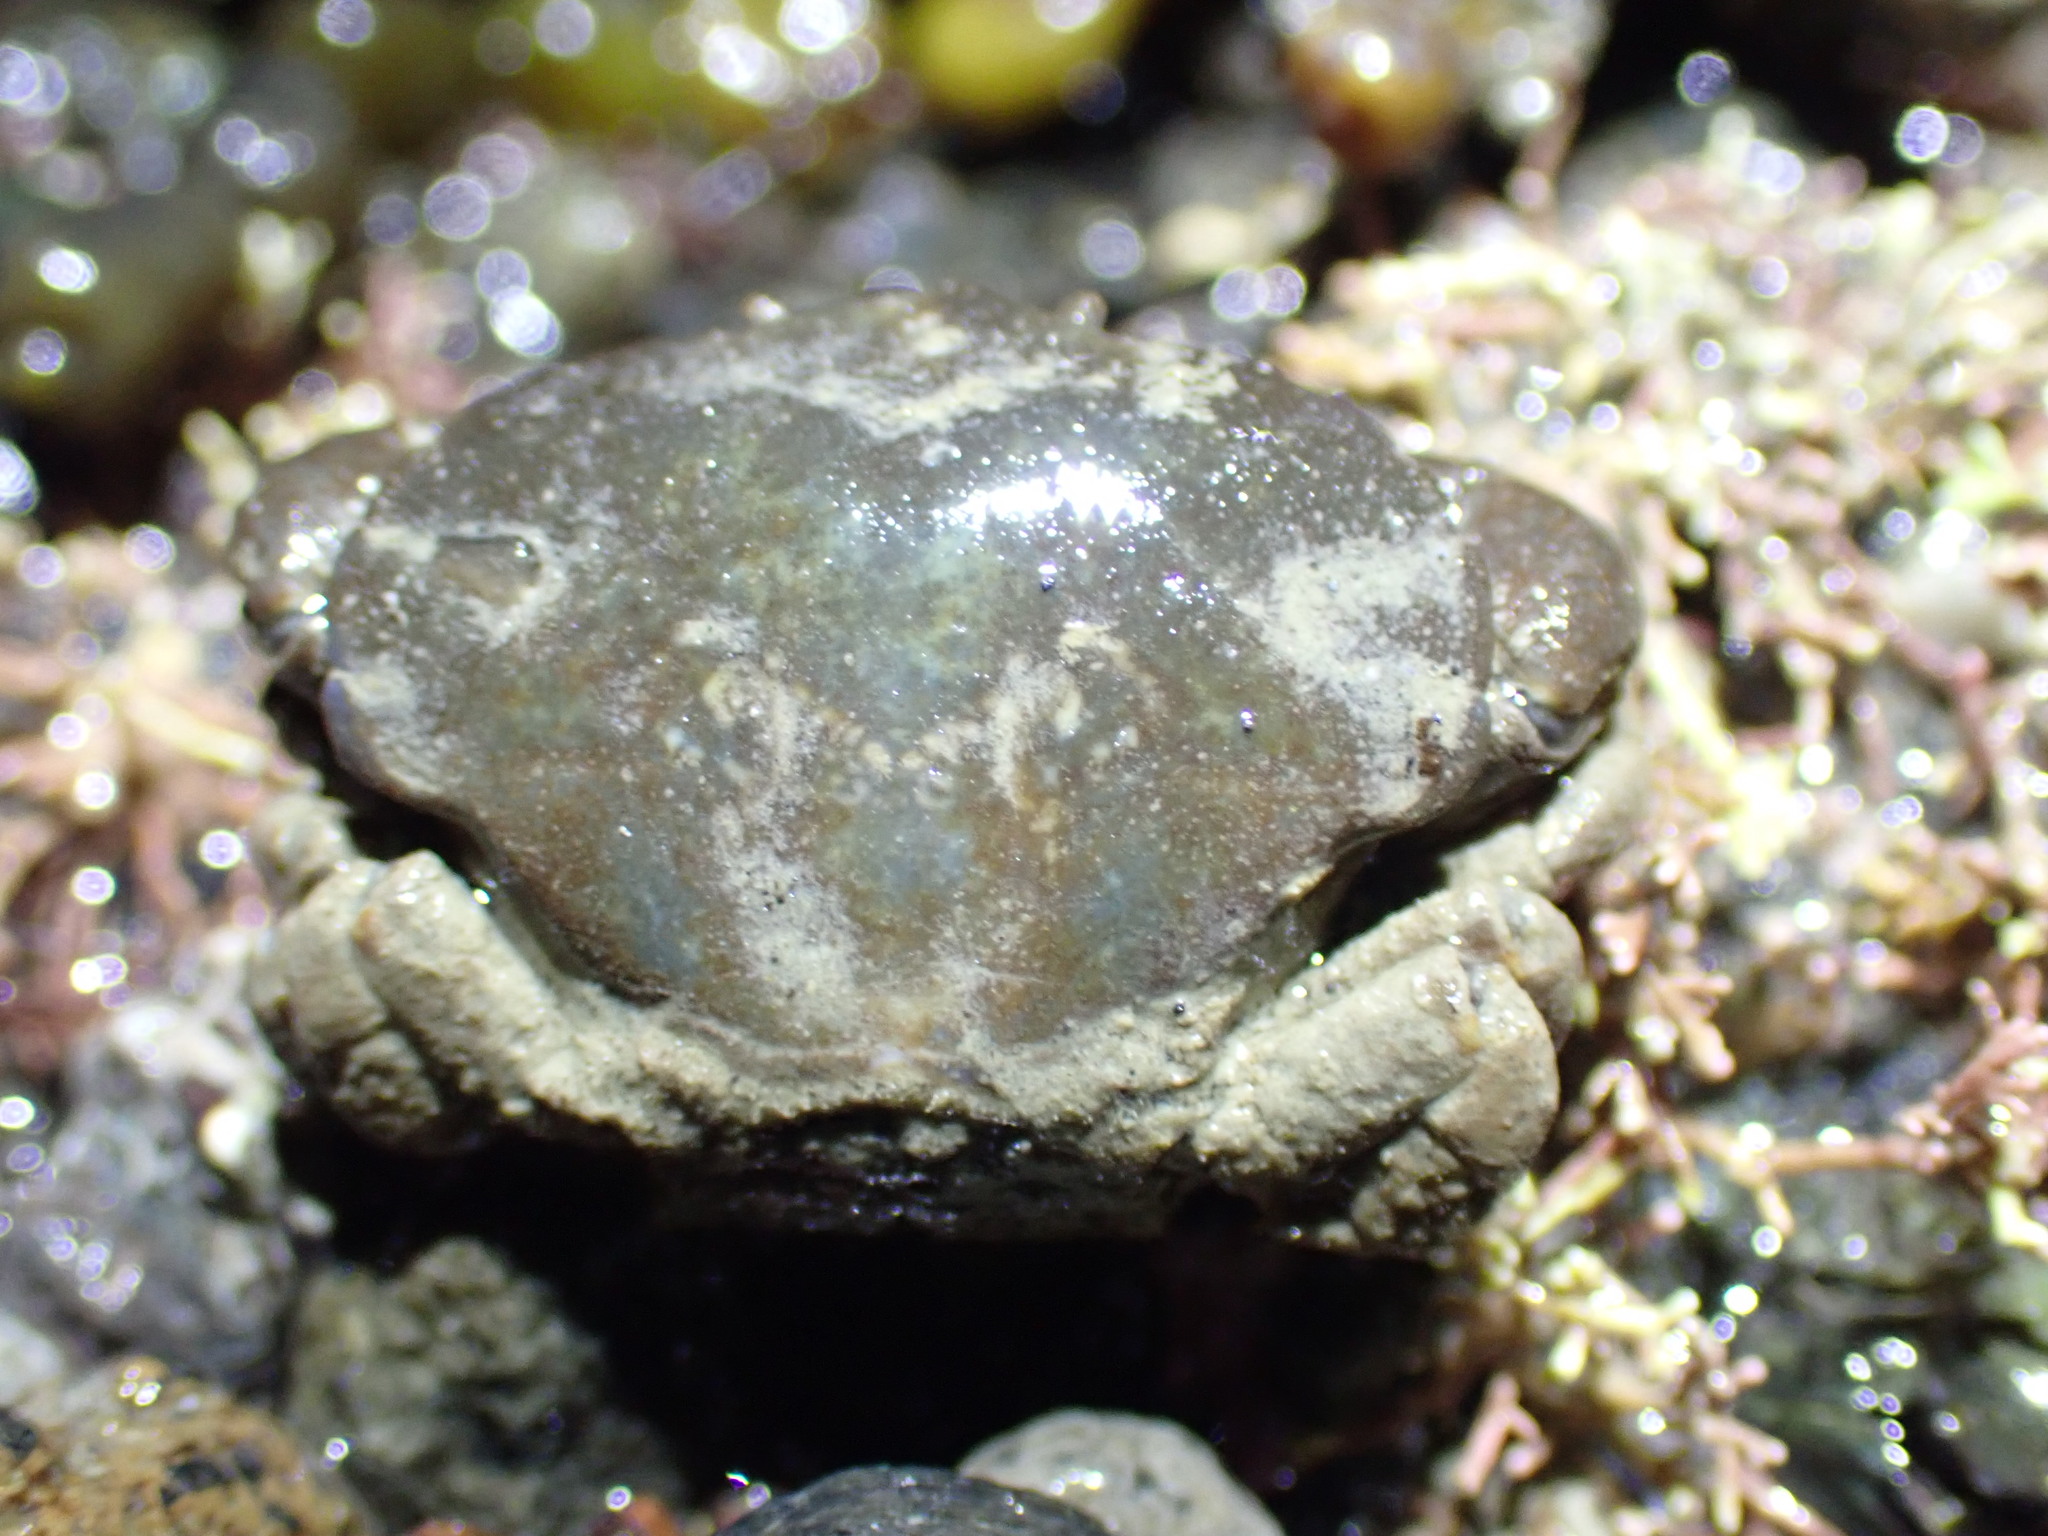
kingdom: Animalia
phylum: Arthropoda
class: Malacostraca
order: Decapoda
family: Heteroziidae
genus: Heterozius
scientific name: Heterozius rotundifrons
